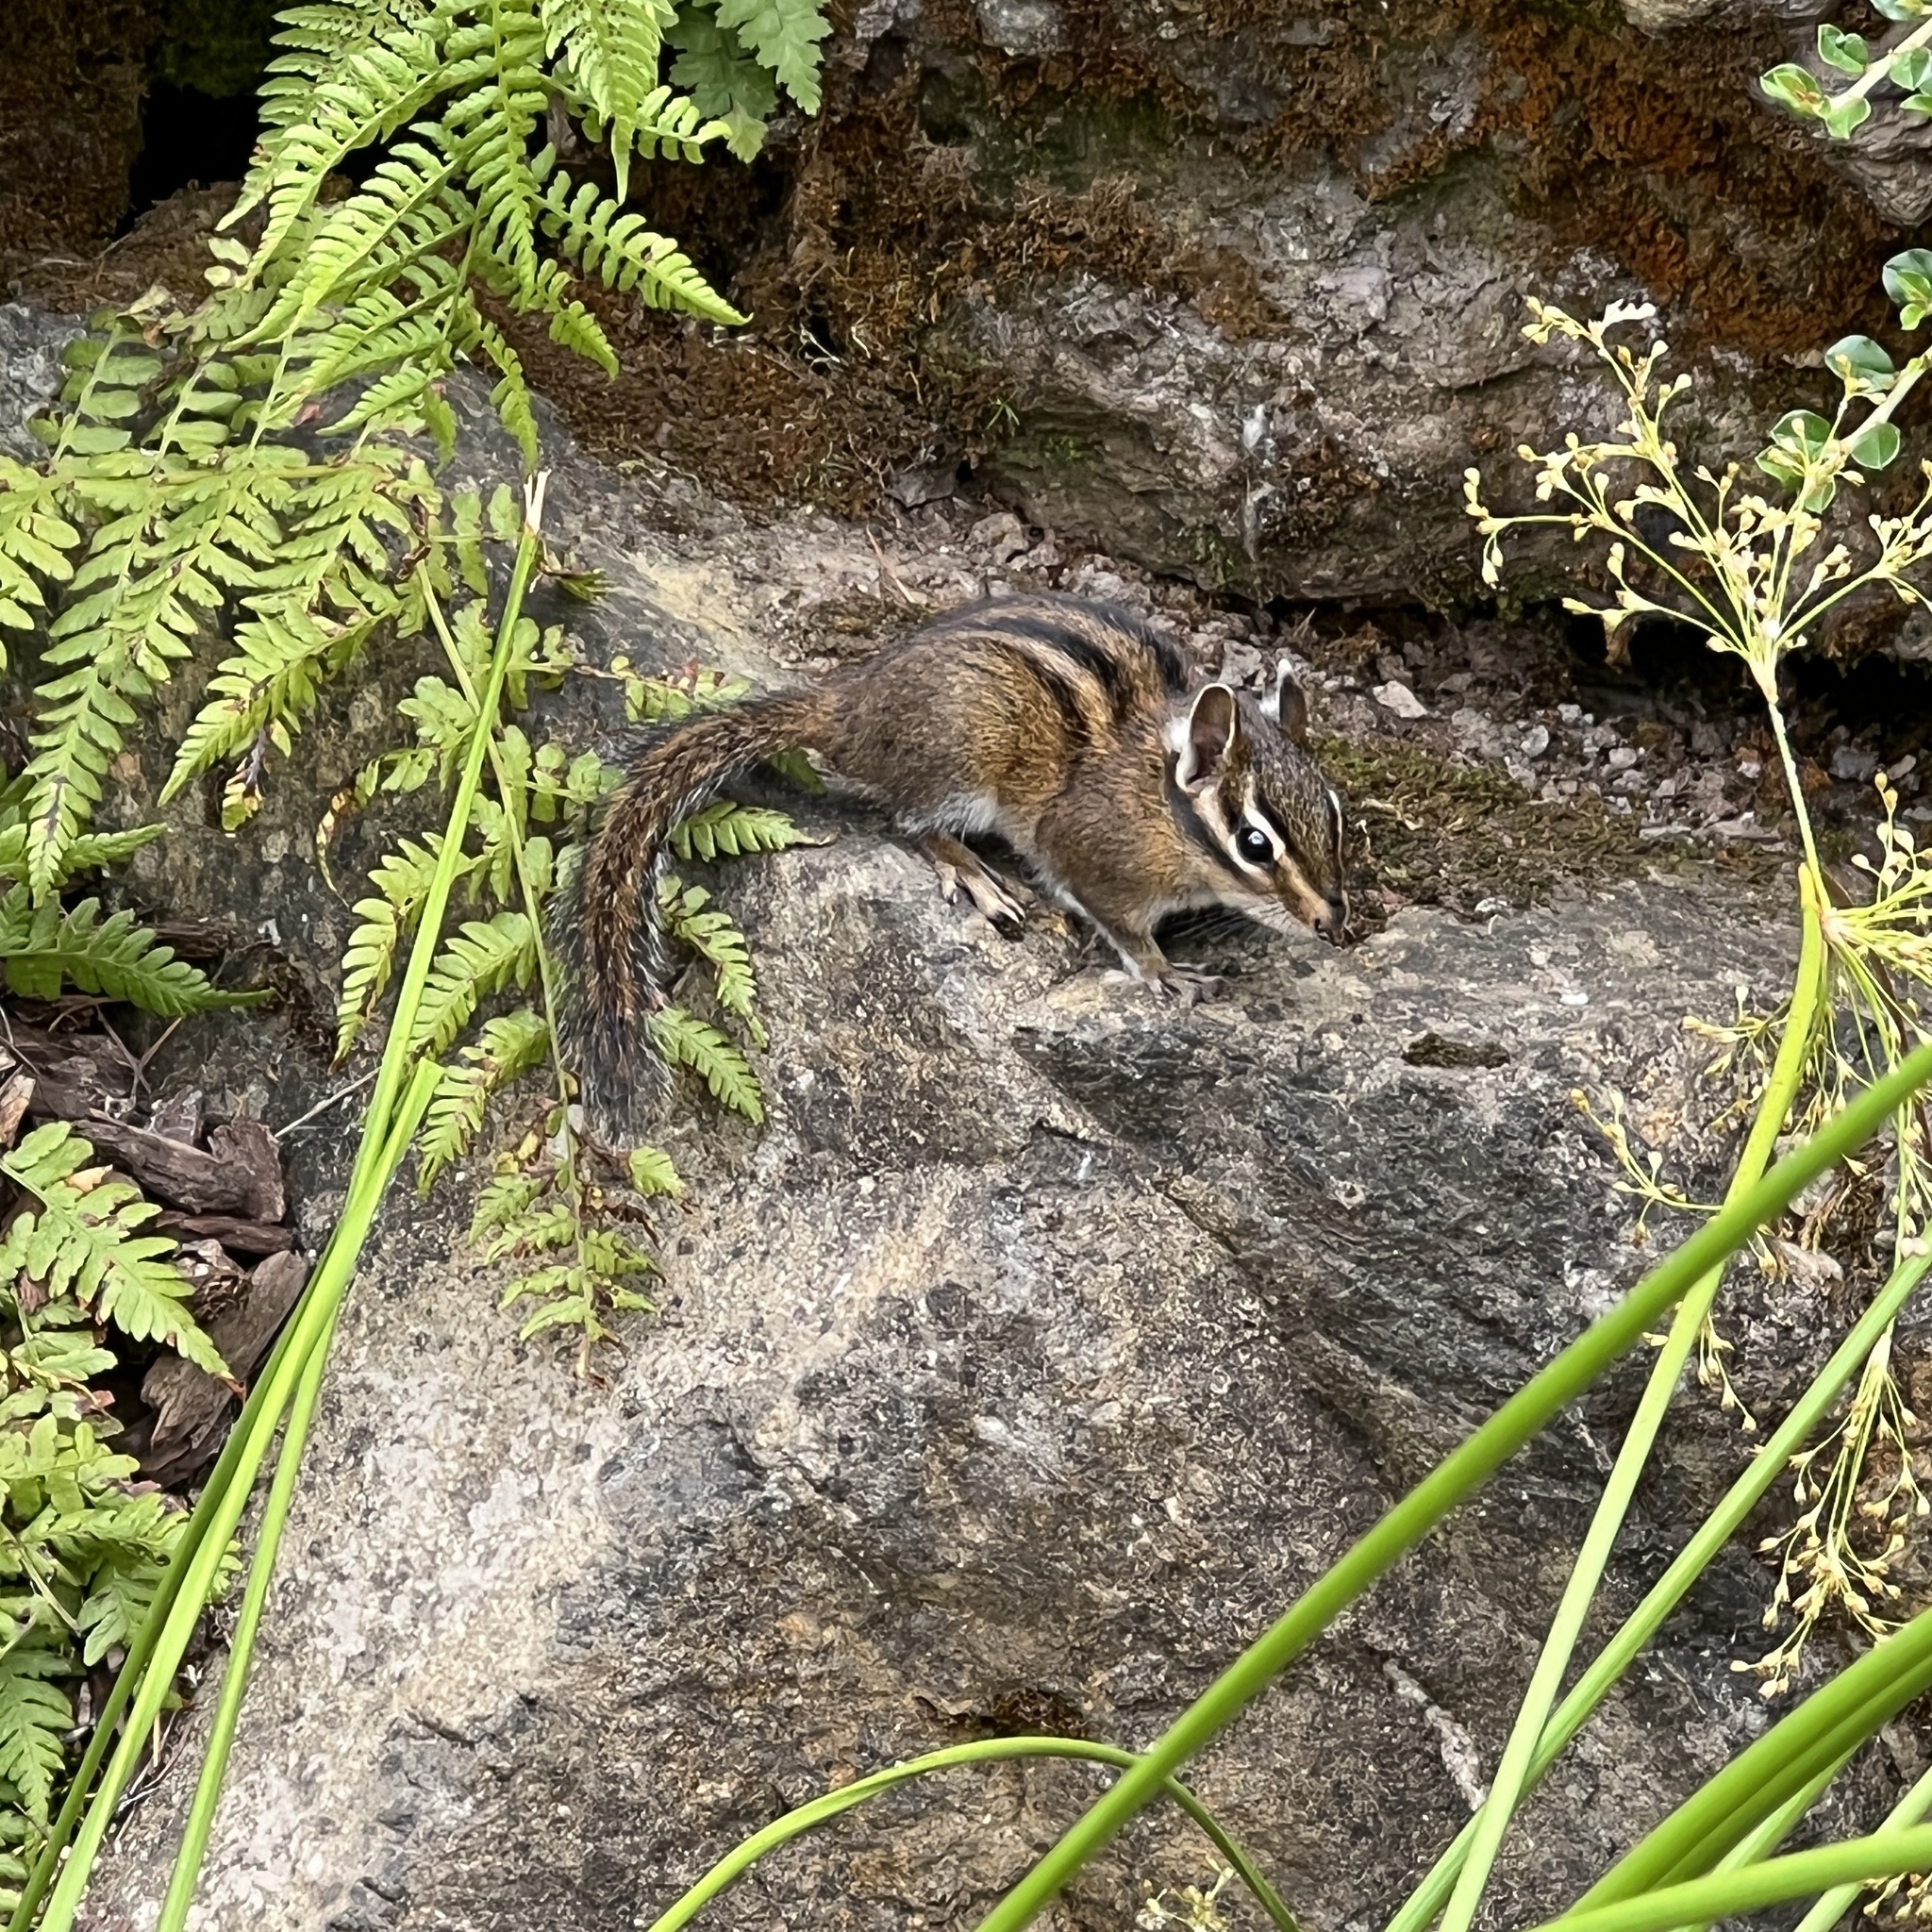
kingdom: Animalia
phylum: Chordata
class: Mammalia
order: Rodentia
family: Sciuridae
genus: Tamias
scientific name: Tamias townsendii
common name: Townsend's chipmunk
